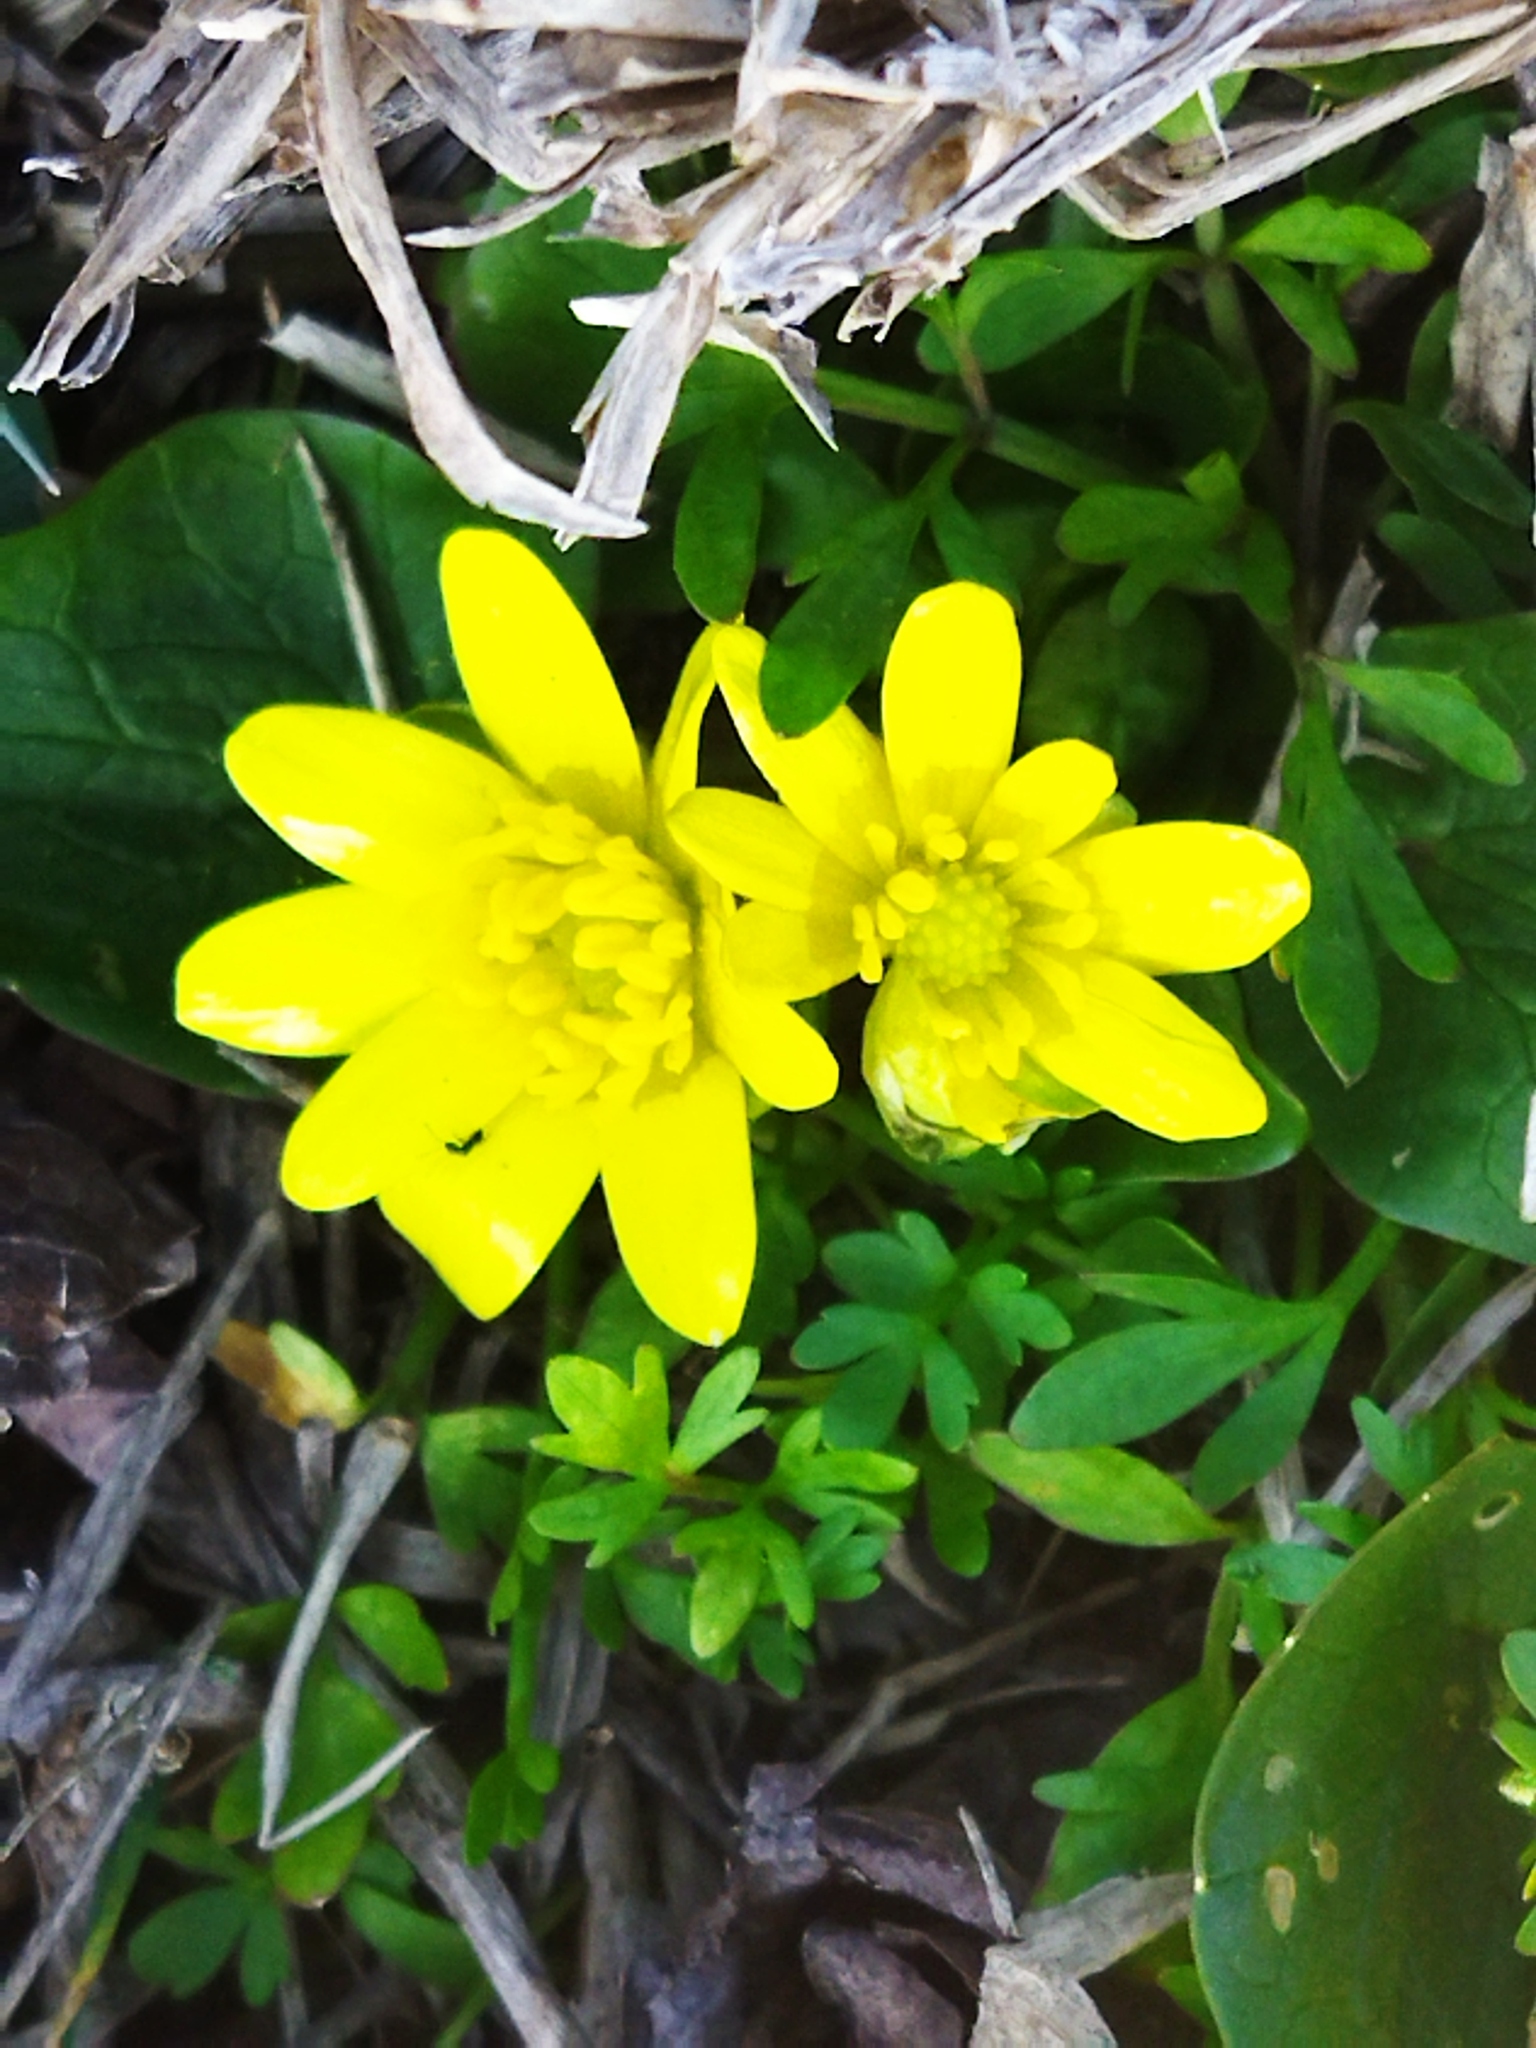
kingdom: Plantae
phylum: Tracheophyta
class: Magnoliopsida
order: Ranunculales
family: Ranunculaceae
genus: Ficaria
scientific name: Ficaria verna
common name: Lesser celandine
